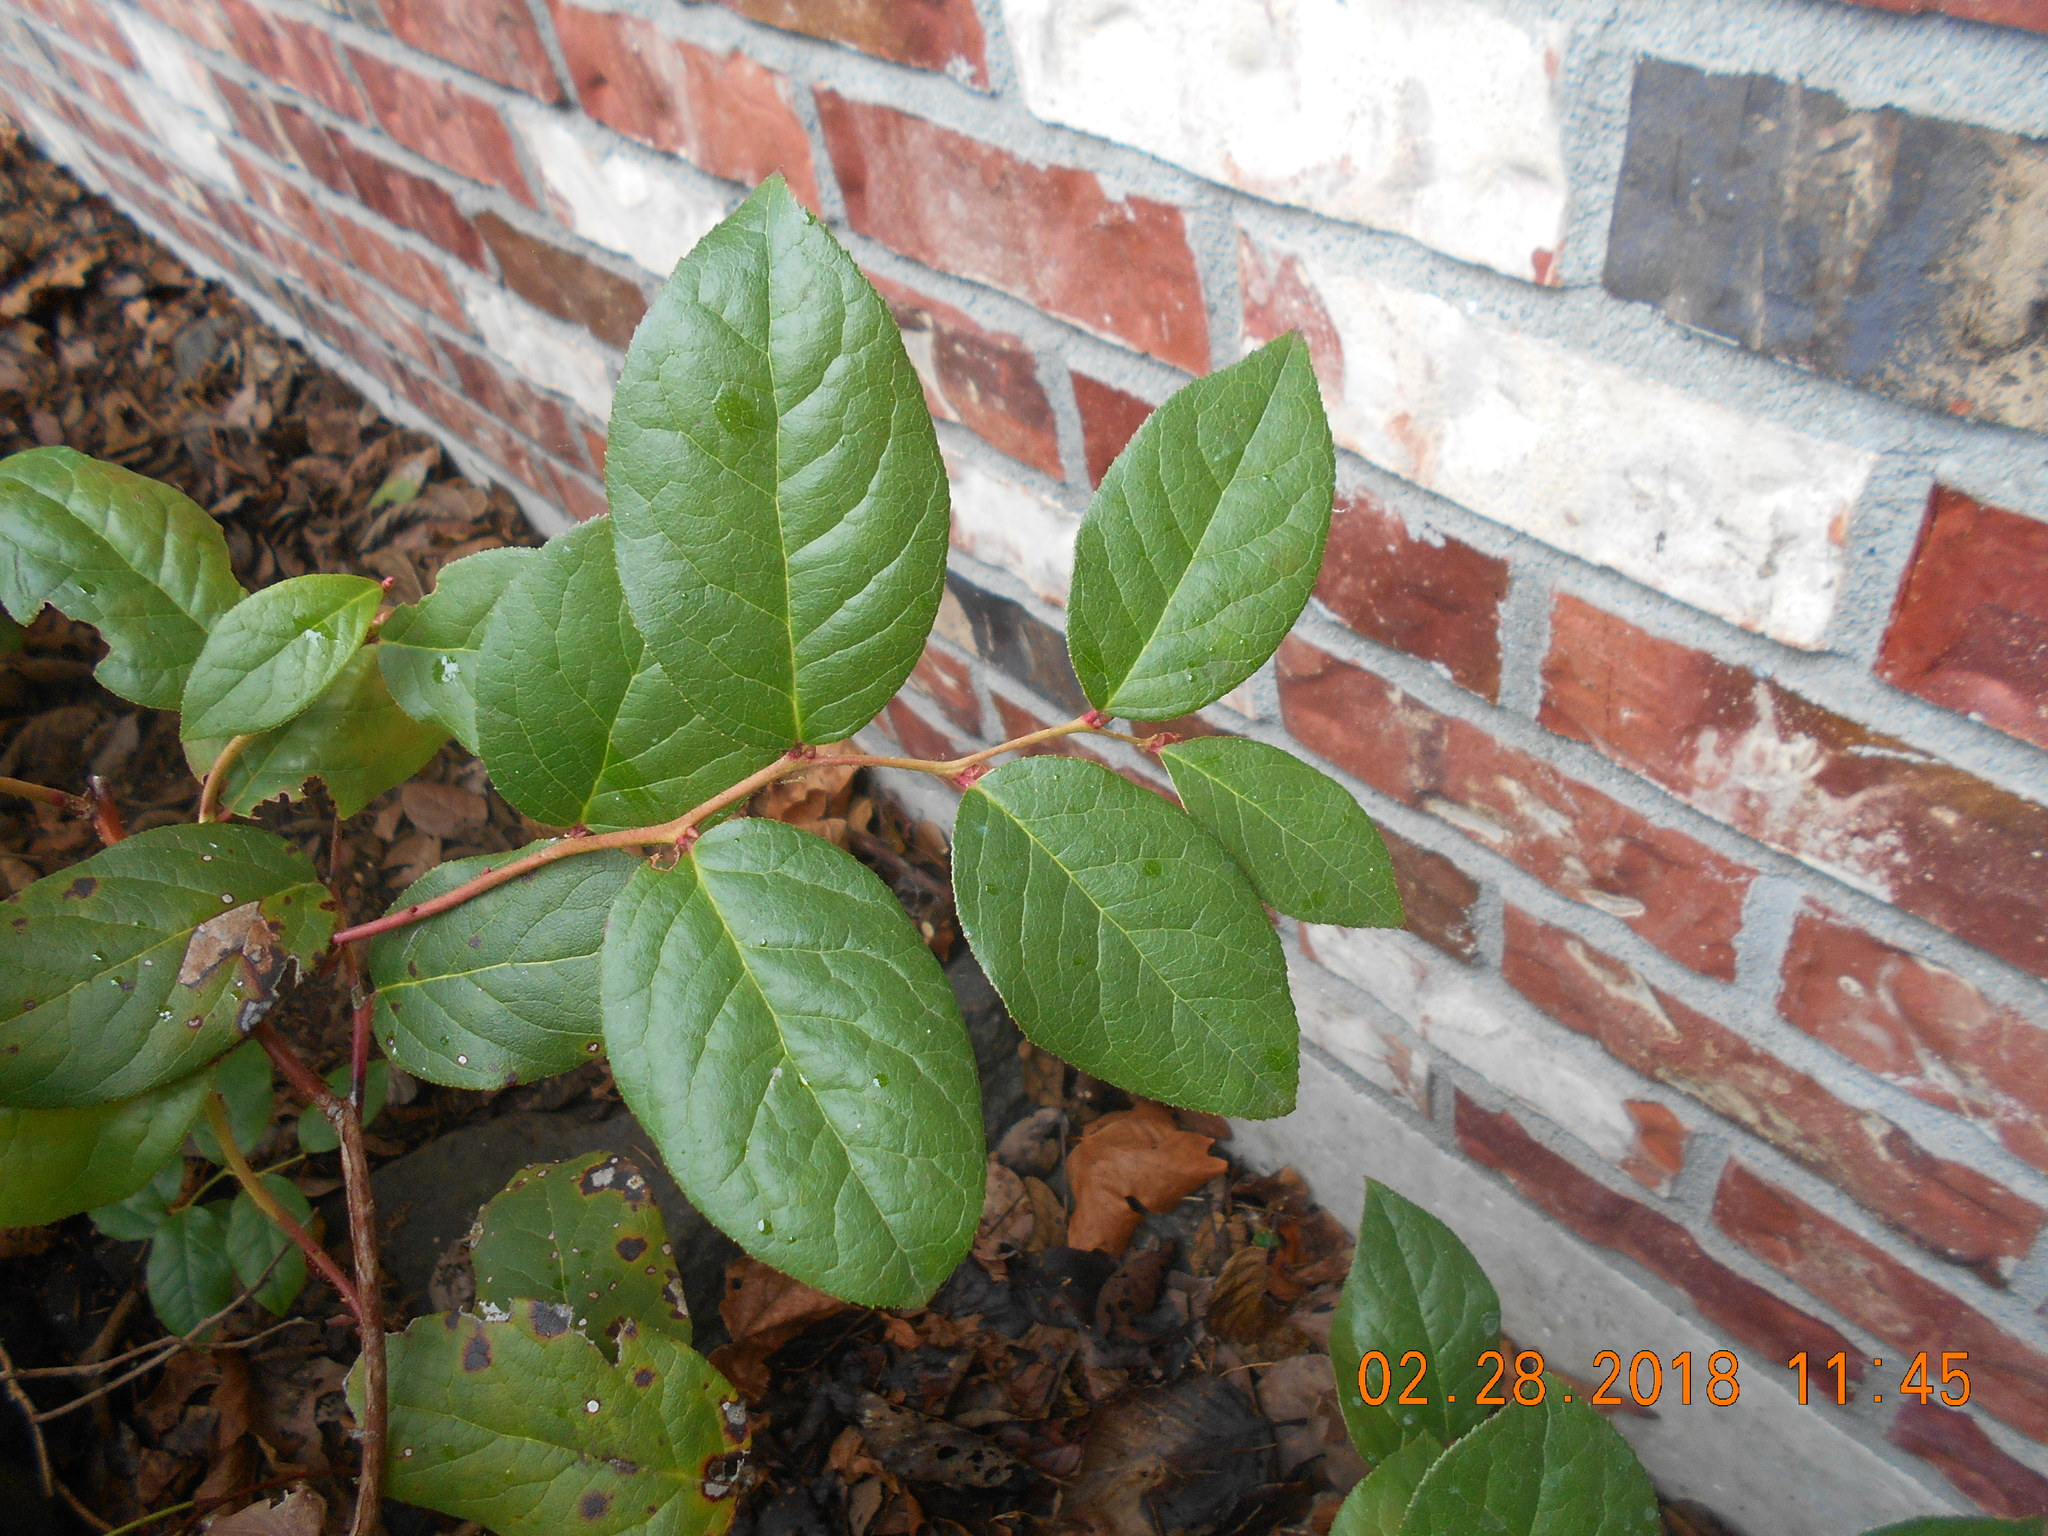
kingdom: Plantae
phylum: Tracheophyta
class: Magnoliopsida
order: Ericales
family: Ericaceae
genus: Gaultheria
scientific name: Gaultheria shallon
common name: Shallon
